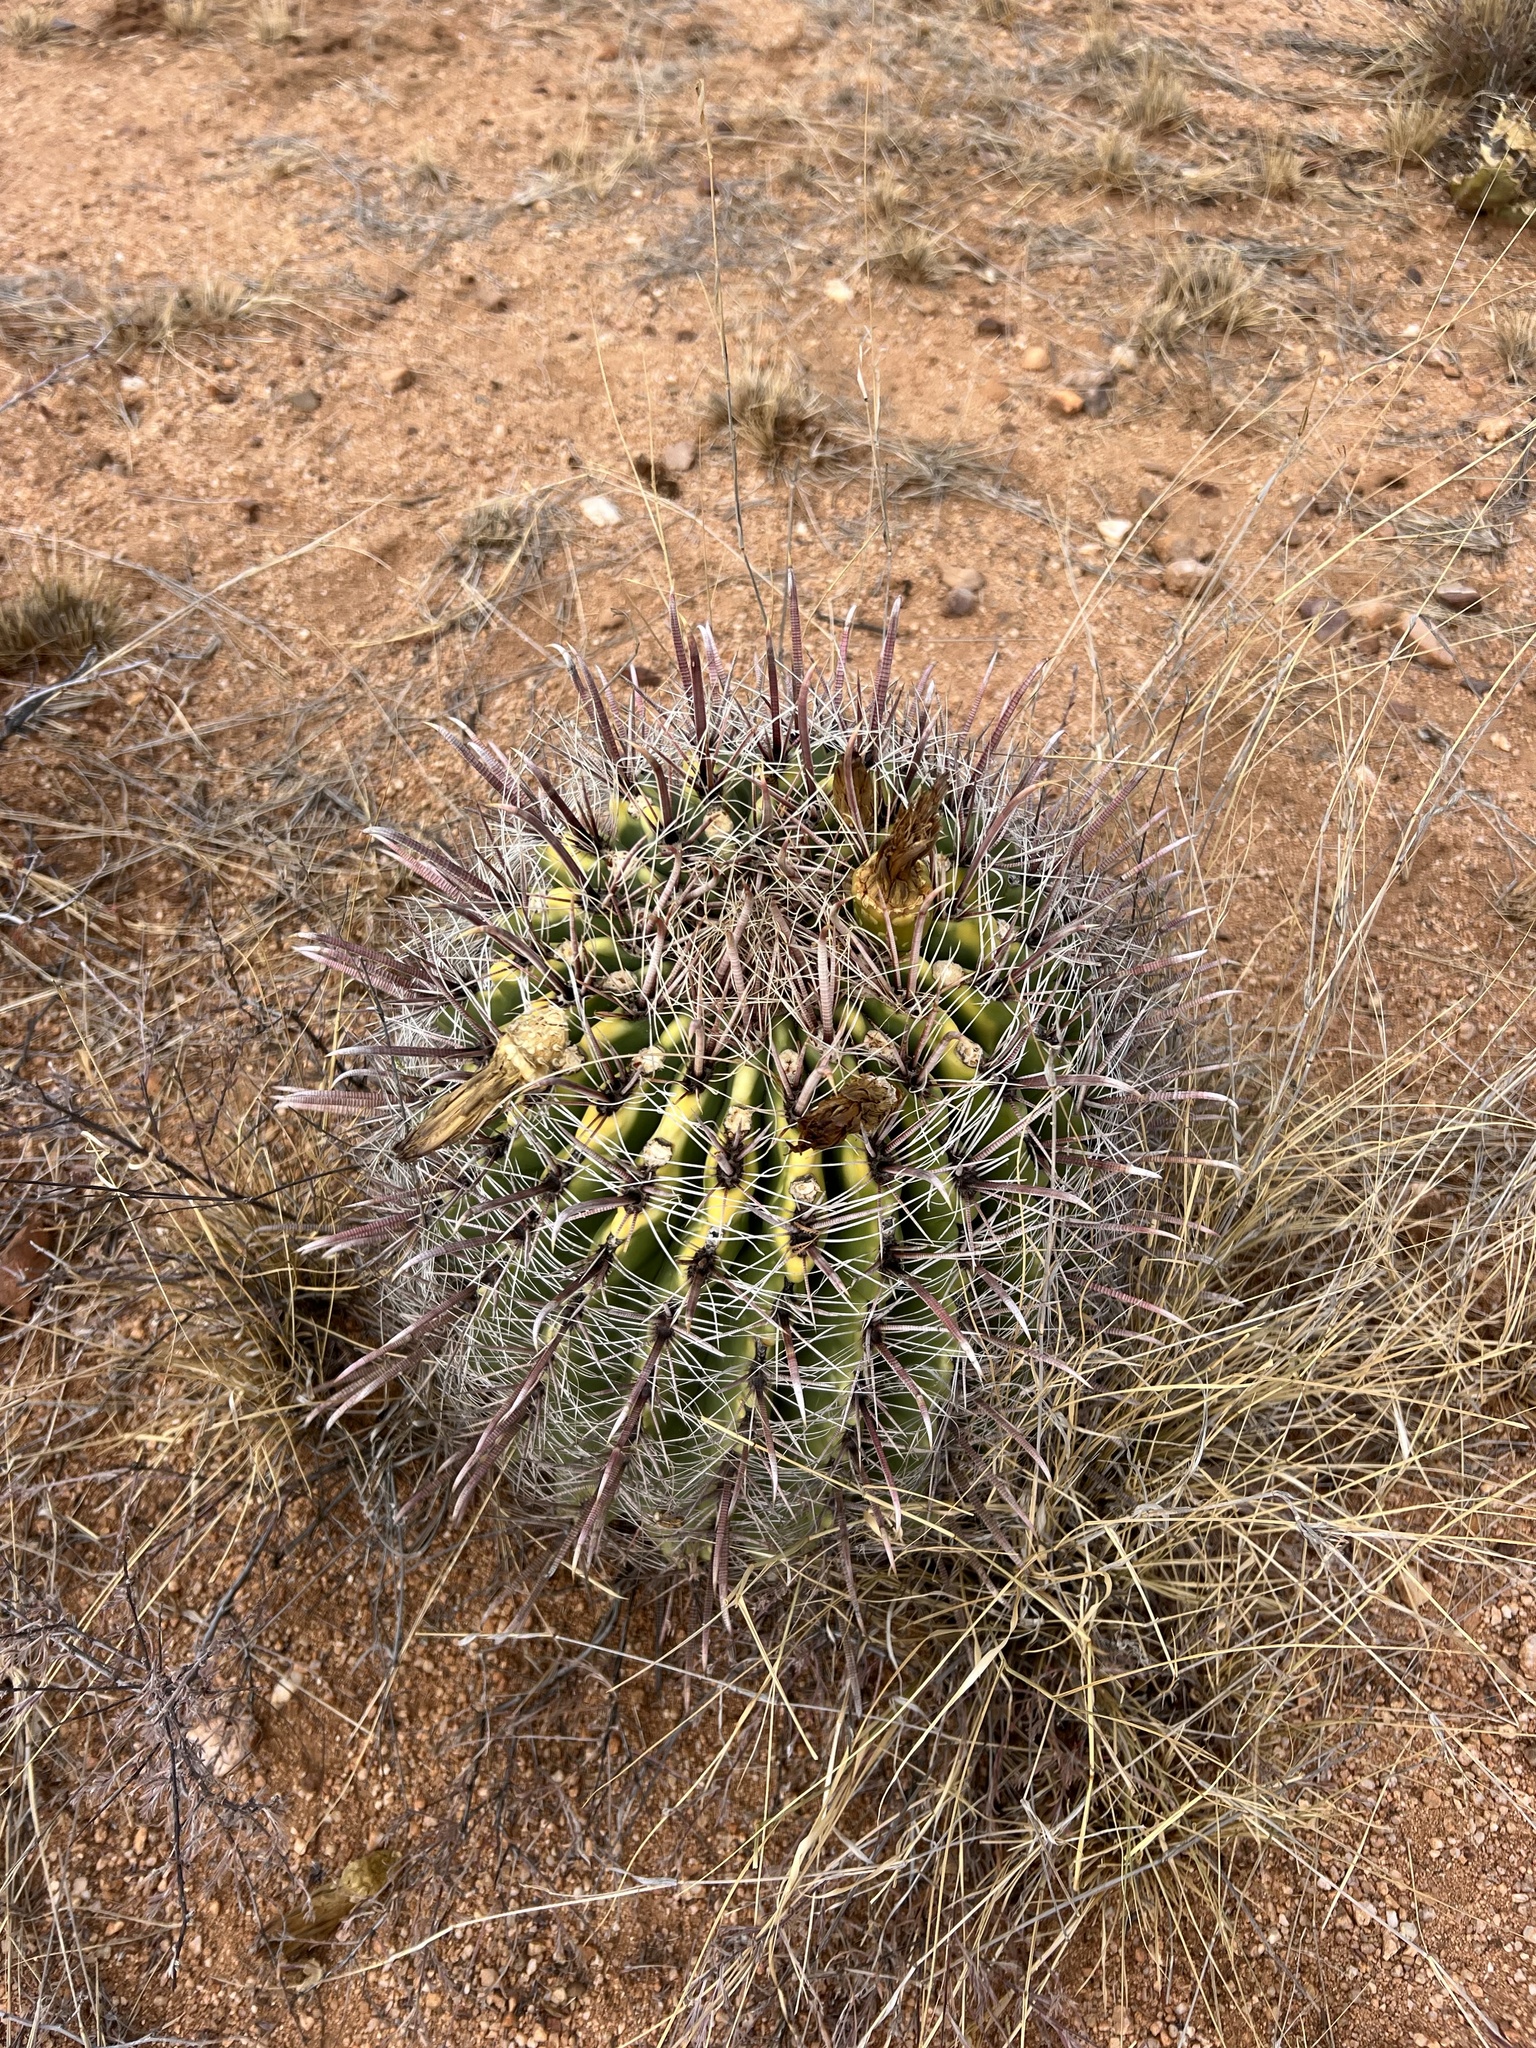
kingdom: Plantae
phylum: Tracheophyta
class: Magnoliopsida
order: Caryophyllales
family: Cactaceae
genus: Ferocactus
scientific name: Ferocactus wislizeni
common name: Candy barrel cactus
